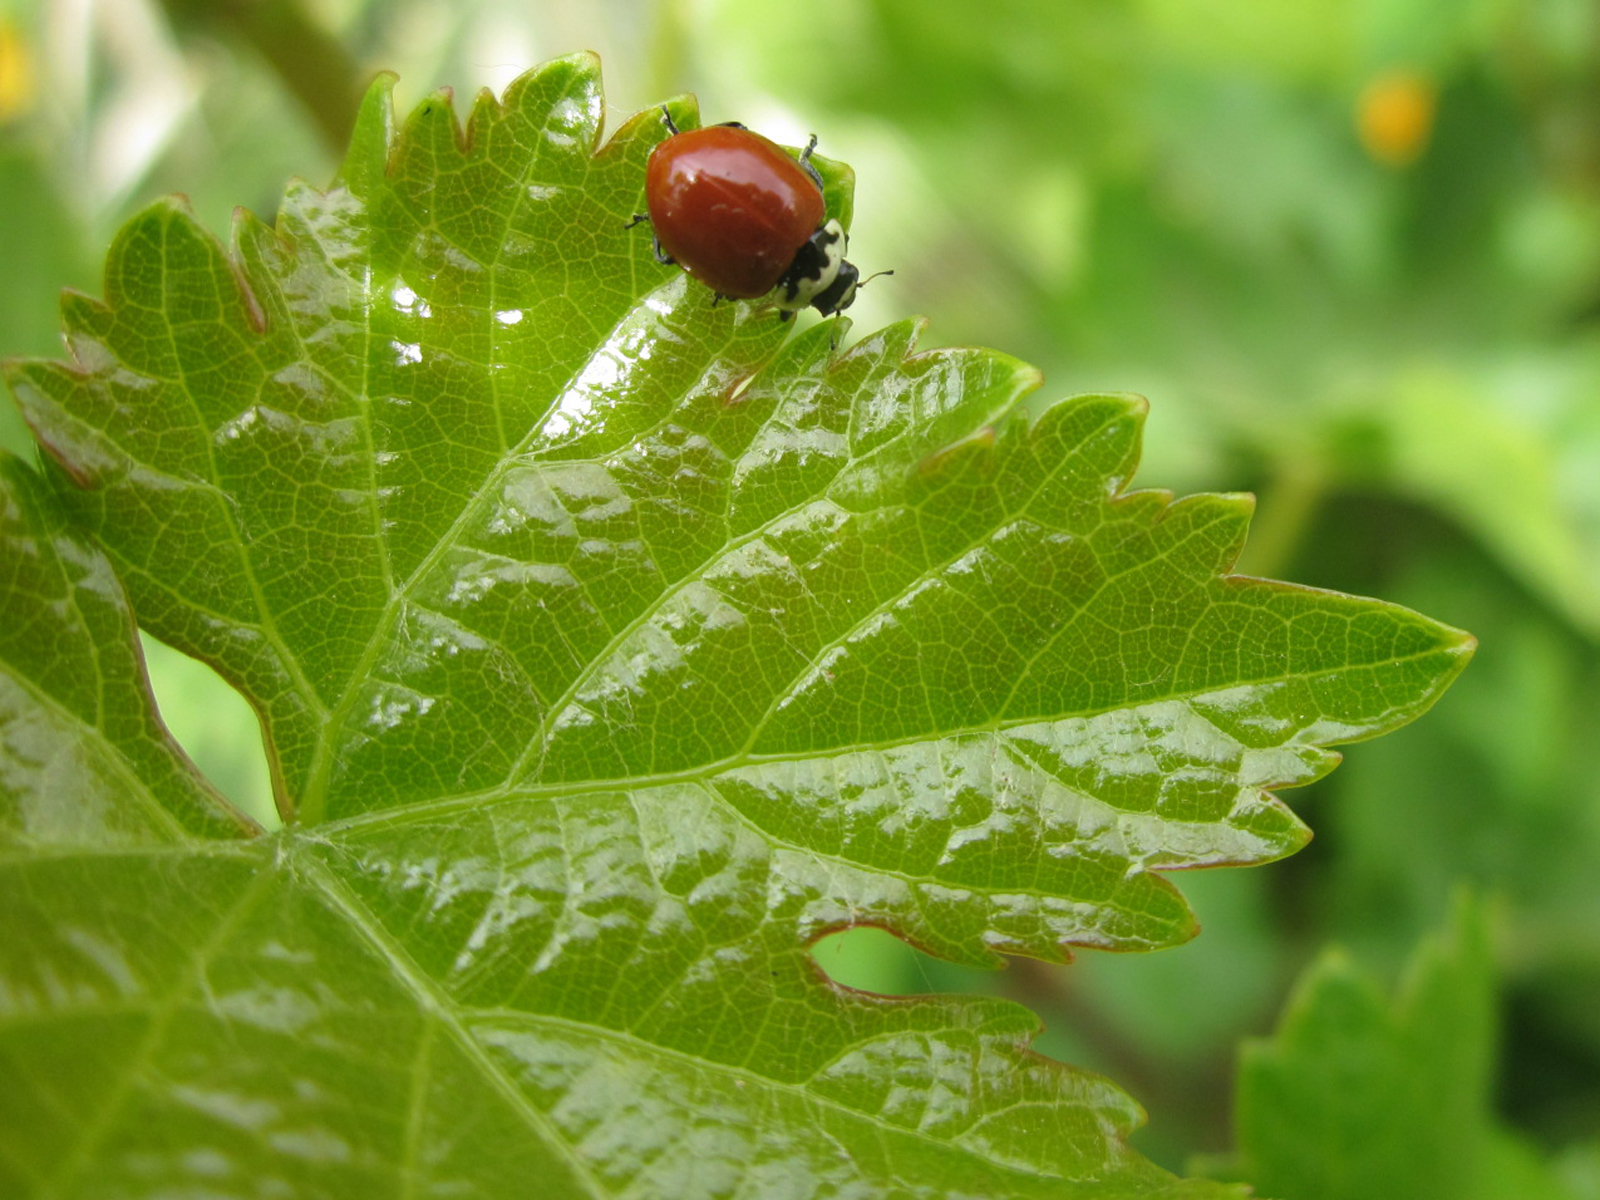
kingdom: Animalia
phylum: Arthropoda
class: Insecta
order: Coleoptera
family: Coccinellidae
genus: Cycloneda
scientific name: Cycloneda
